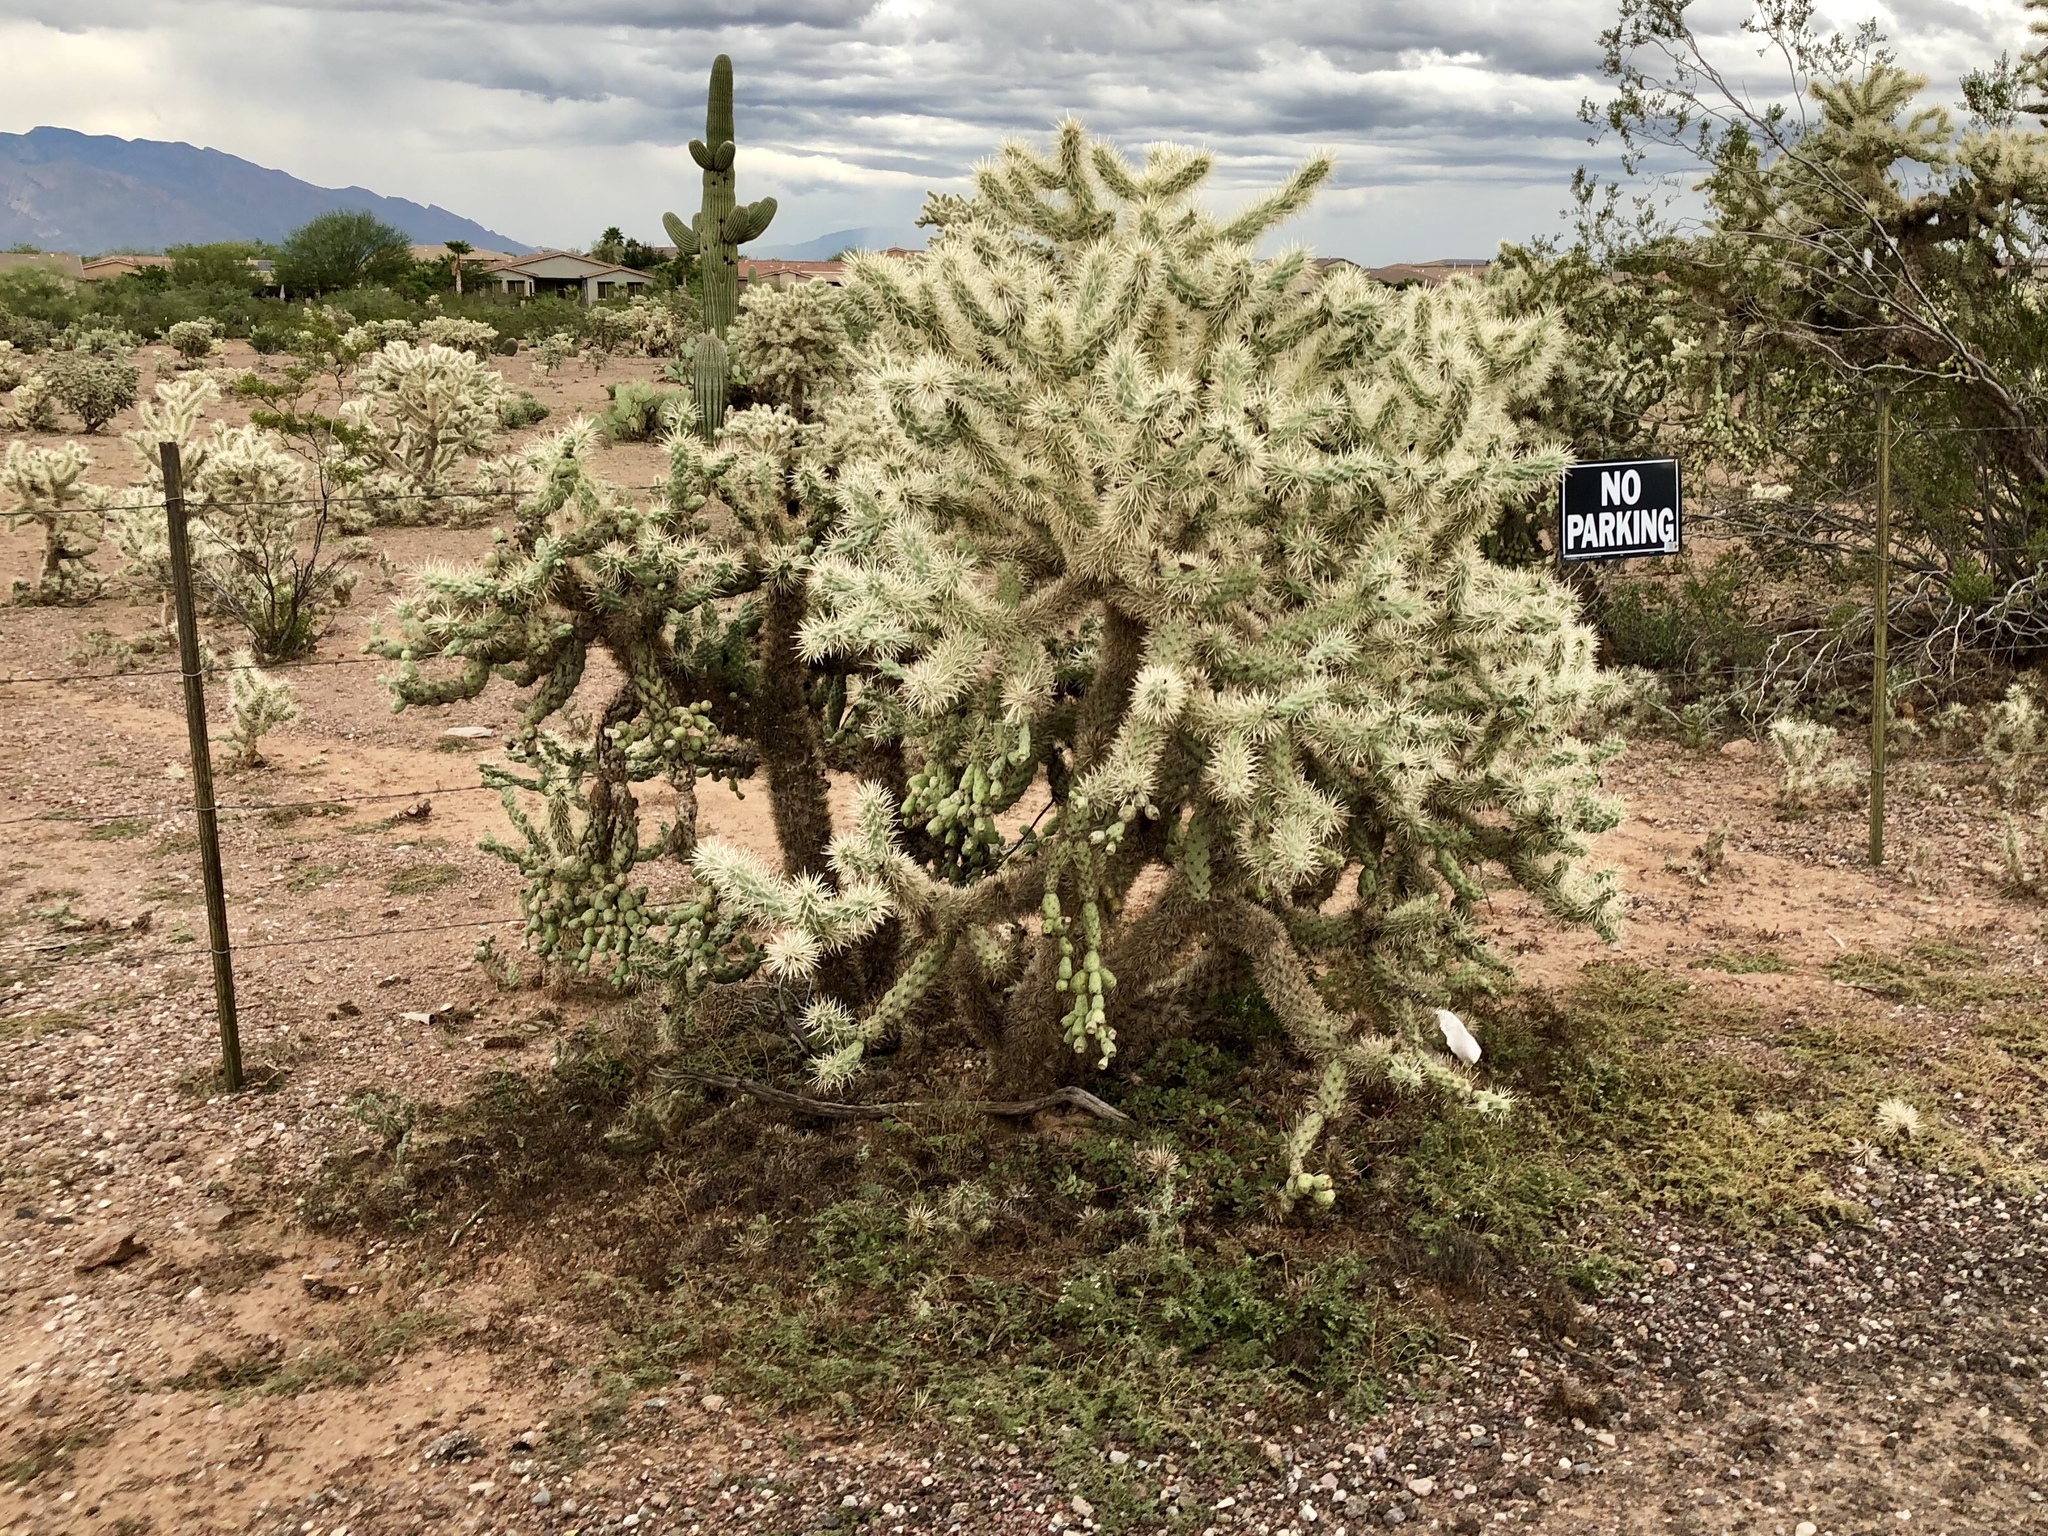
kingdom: Plantae
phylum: Tracheophyta
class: Magnoliopsida
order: Caryophyllales
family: Cactaceae
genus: Cylindropuntia
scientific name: Cylindropuntia fulgida
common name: Jumping cholla
